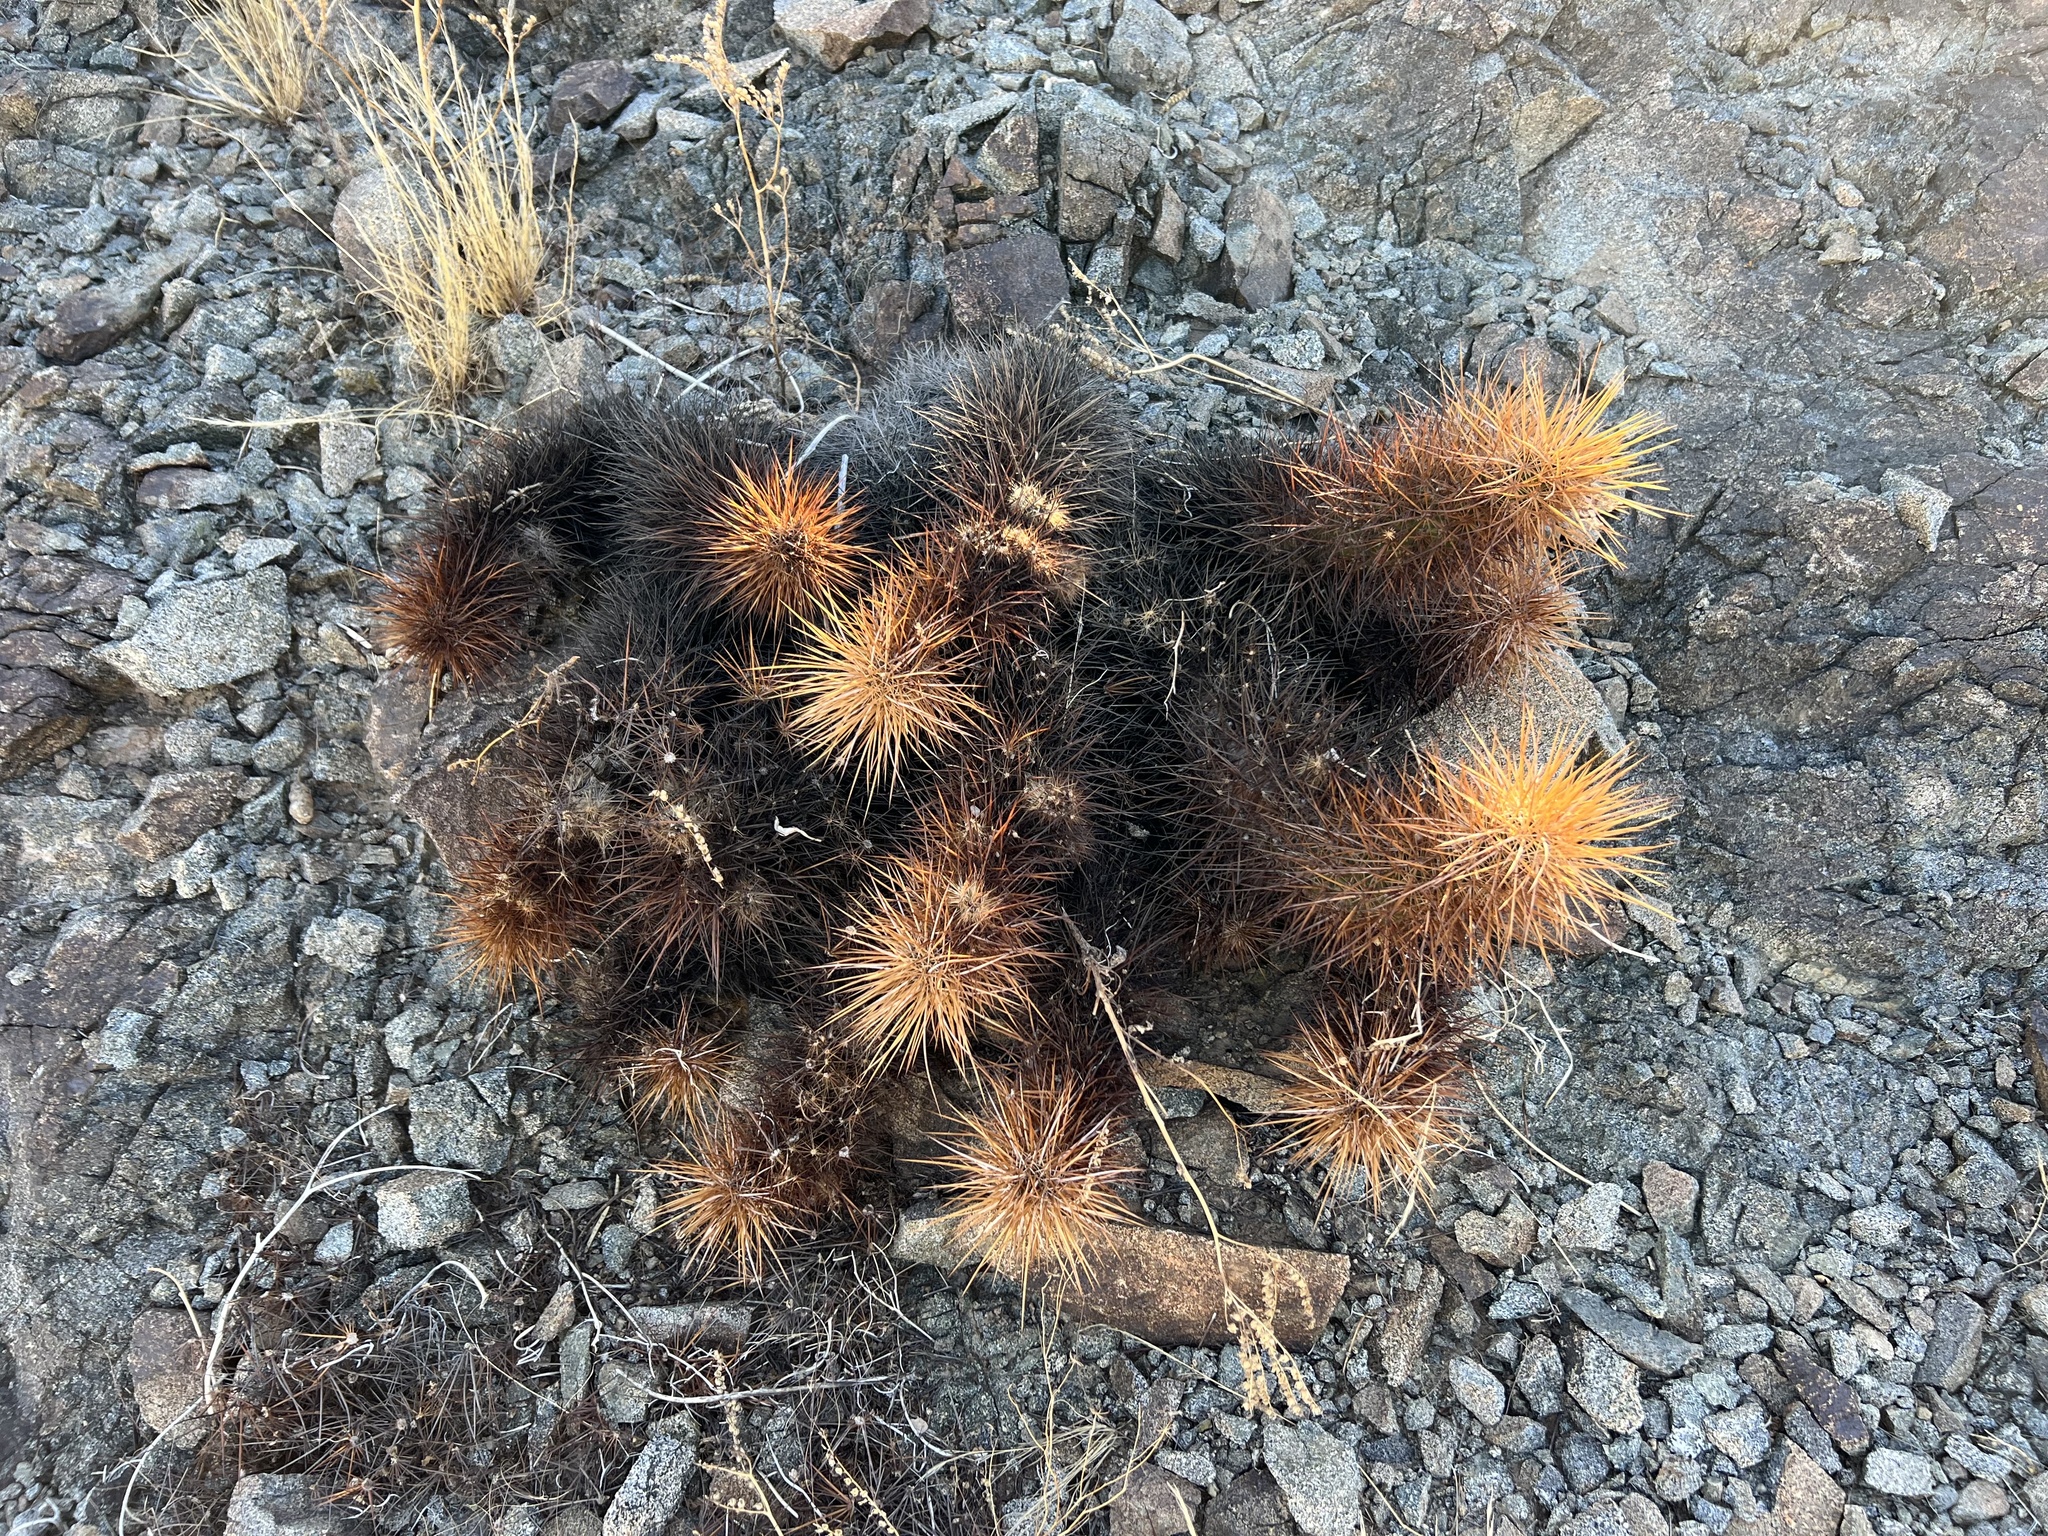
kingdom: Plantae
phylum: Tracheophyta
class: Magnoliopsida
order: Caryophyllales
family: Cactaceae
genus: Echinocereus
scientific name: Echinocereus engelmannii
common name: Engelmann's hedgehog cactus
